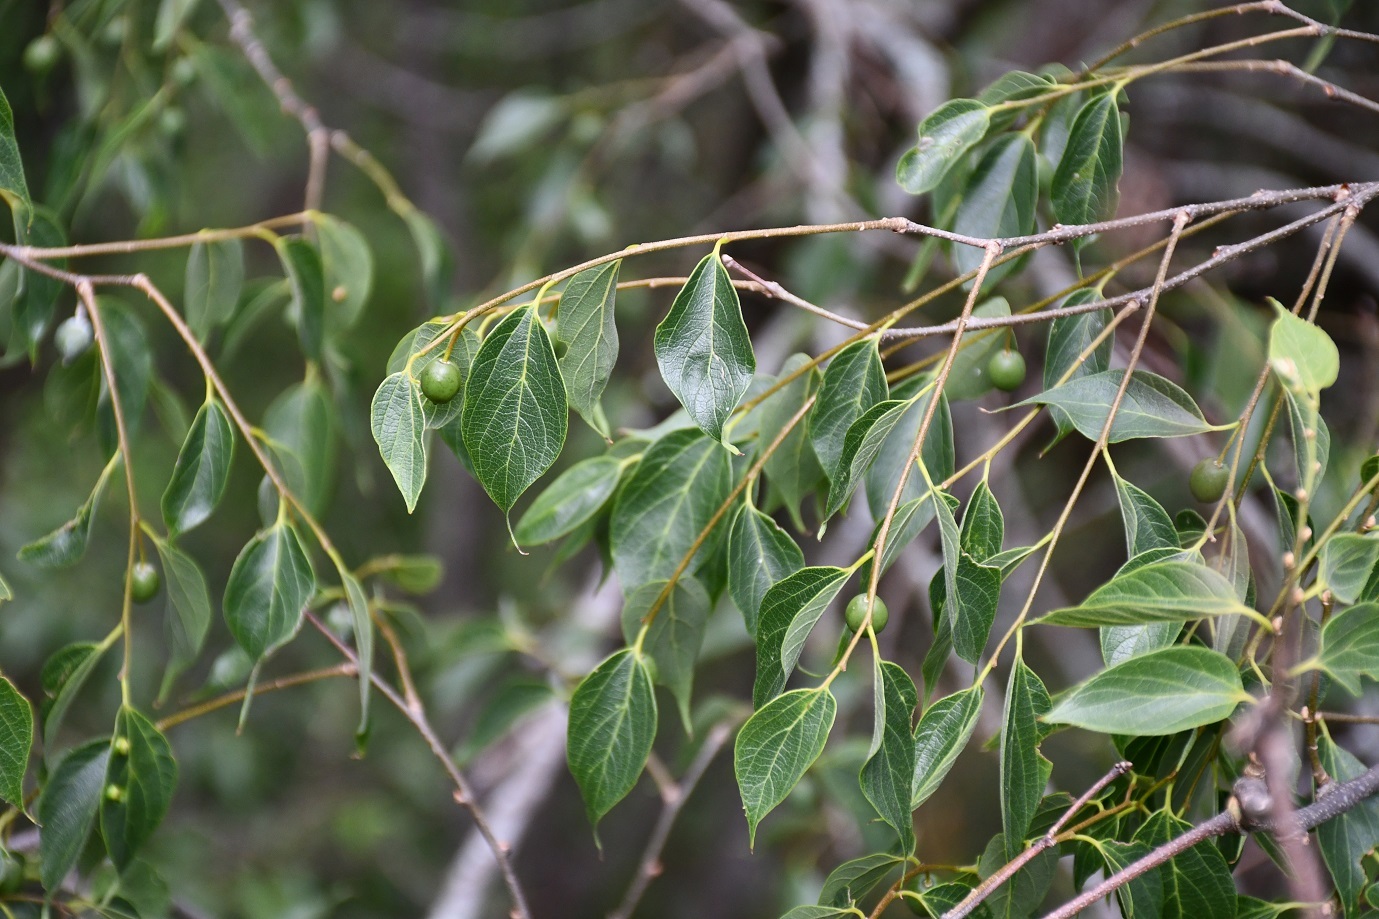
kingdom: Plantae
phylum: Tracheophyta
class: Magnoliopsida
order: Rosales
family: Rhamnaceae
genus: Hovenia
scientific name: Hovenia
